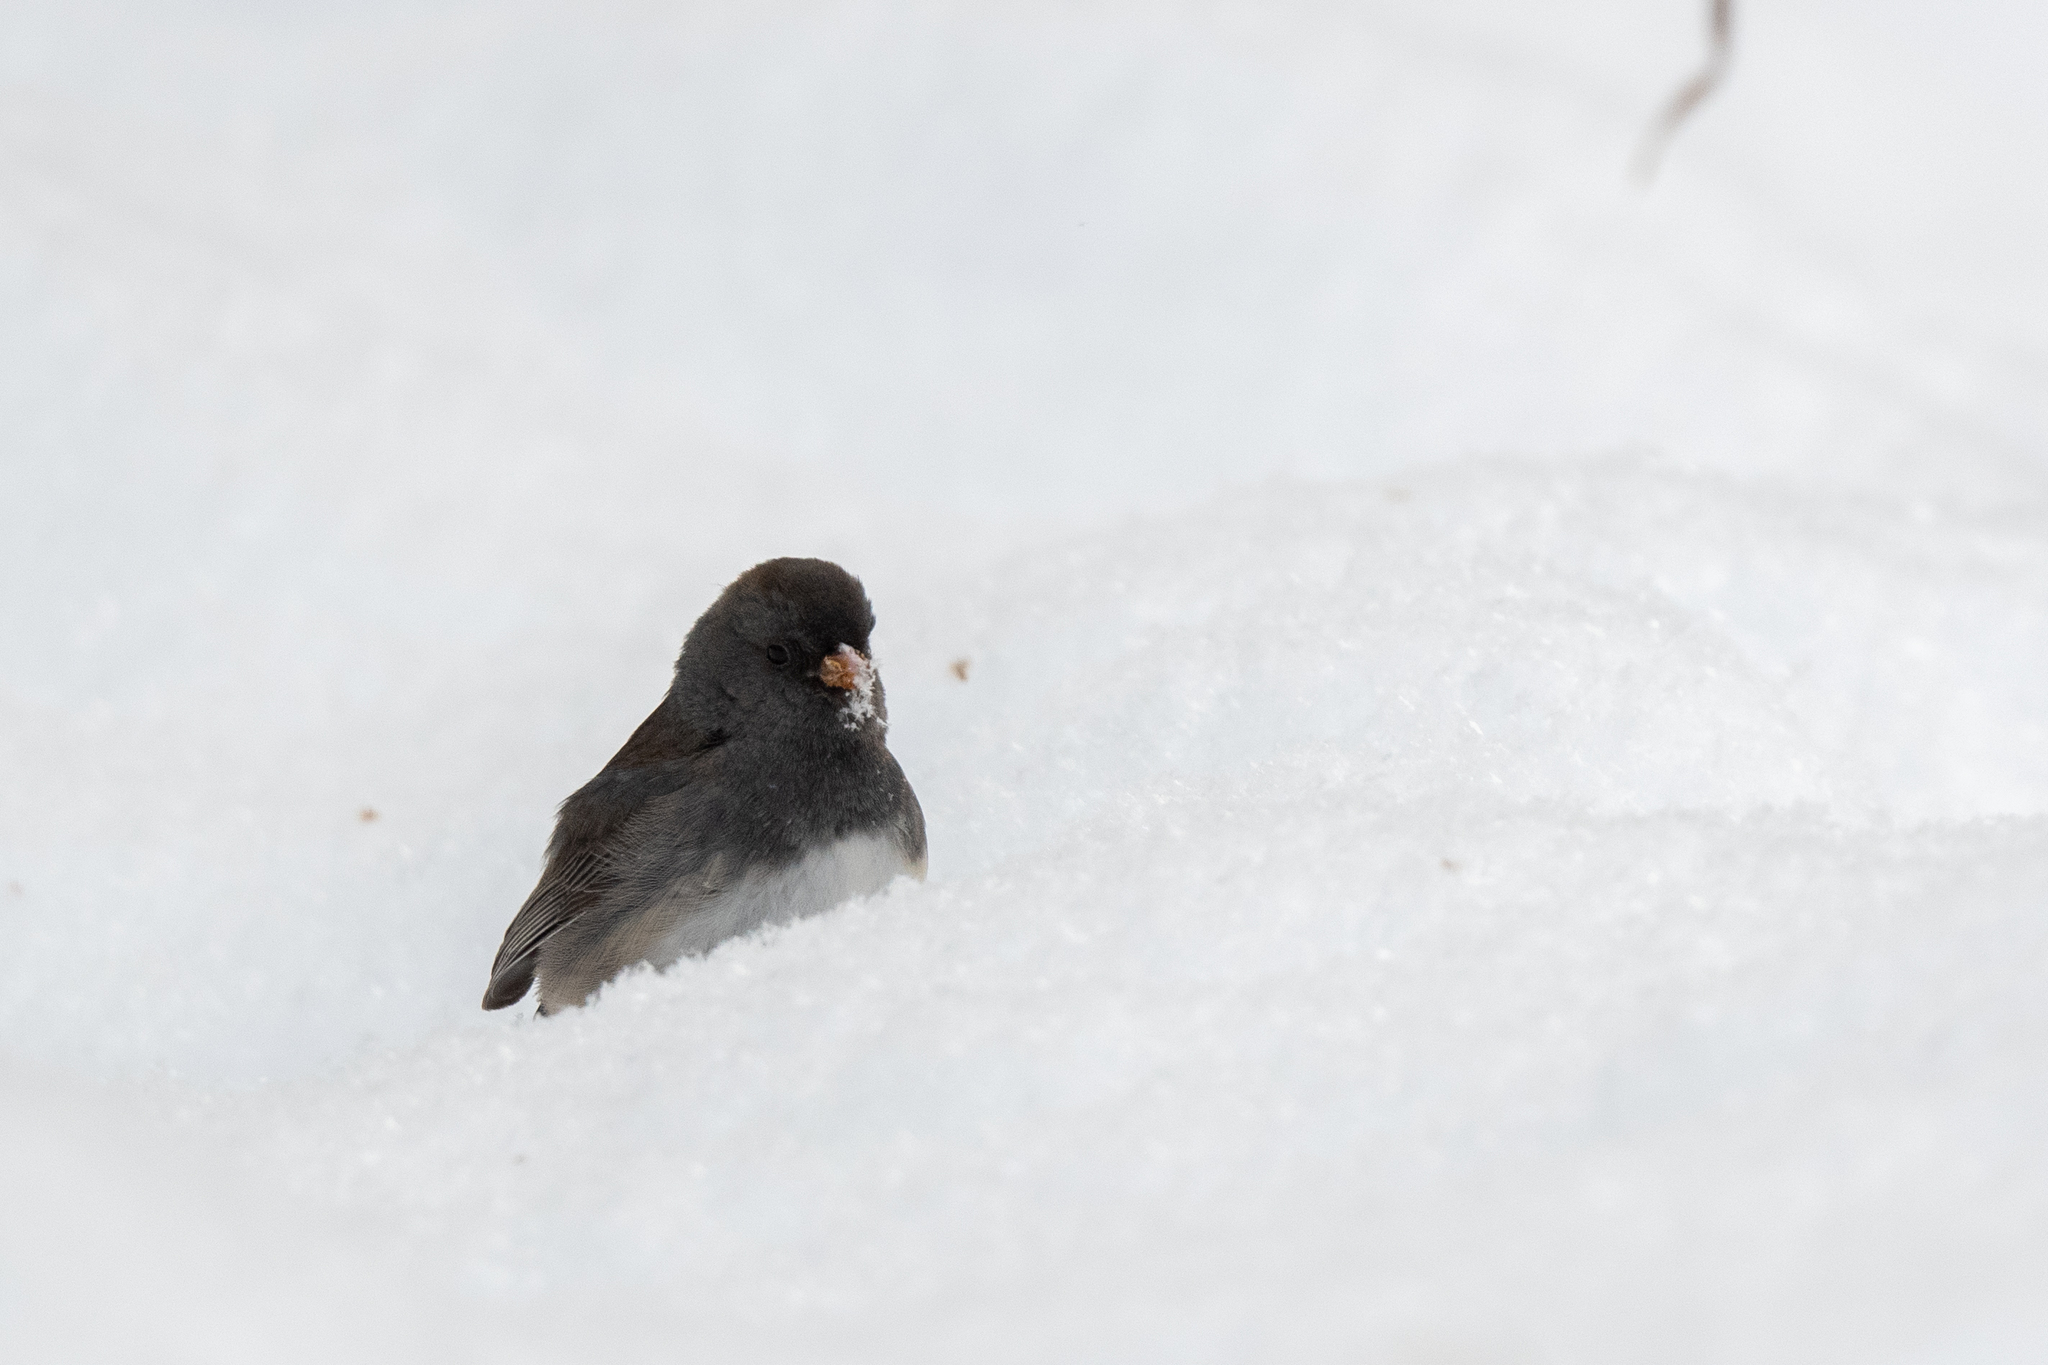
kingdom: Animalia
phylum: Chordata
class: Aves
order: Passeriformes
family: Passerellidae
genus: Junco
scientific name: Junco hyemalis
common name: Dark-eyed junco
